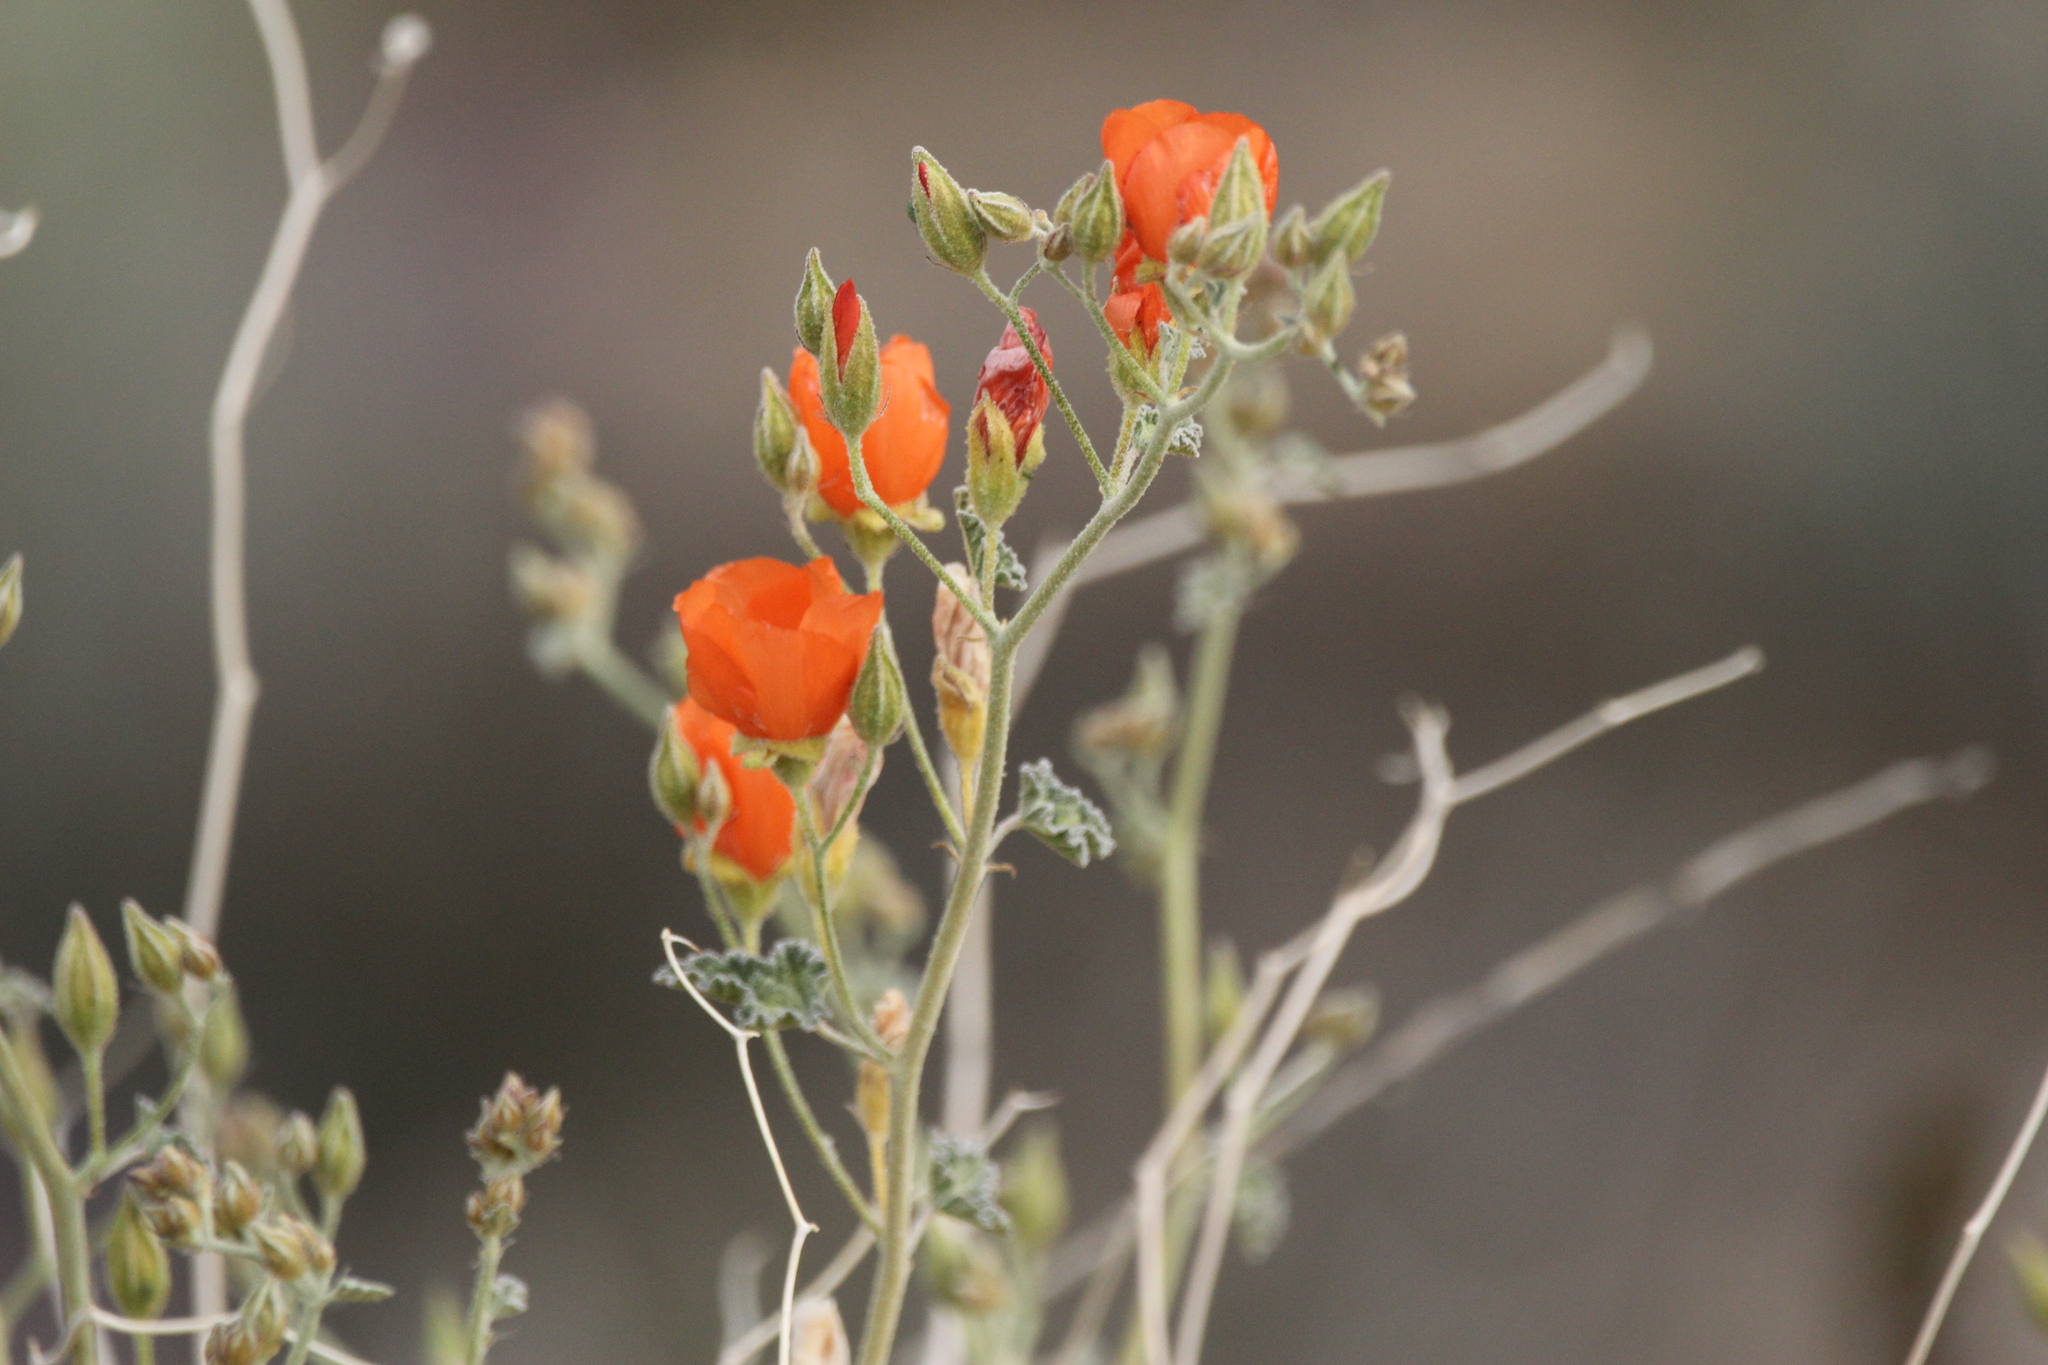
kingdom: Plantae
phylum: Tracheophyta
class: Magnoliopsida
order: Malvales
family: Malvaceae
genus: Sphaeralcea
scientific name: Sphaeralcea ambigua
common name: Apricot globe-mallow
